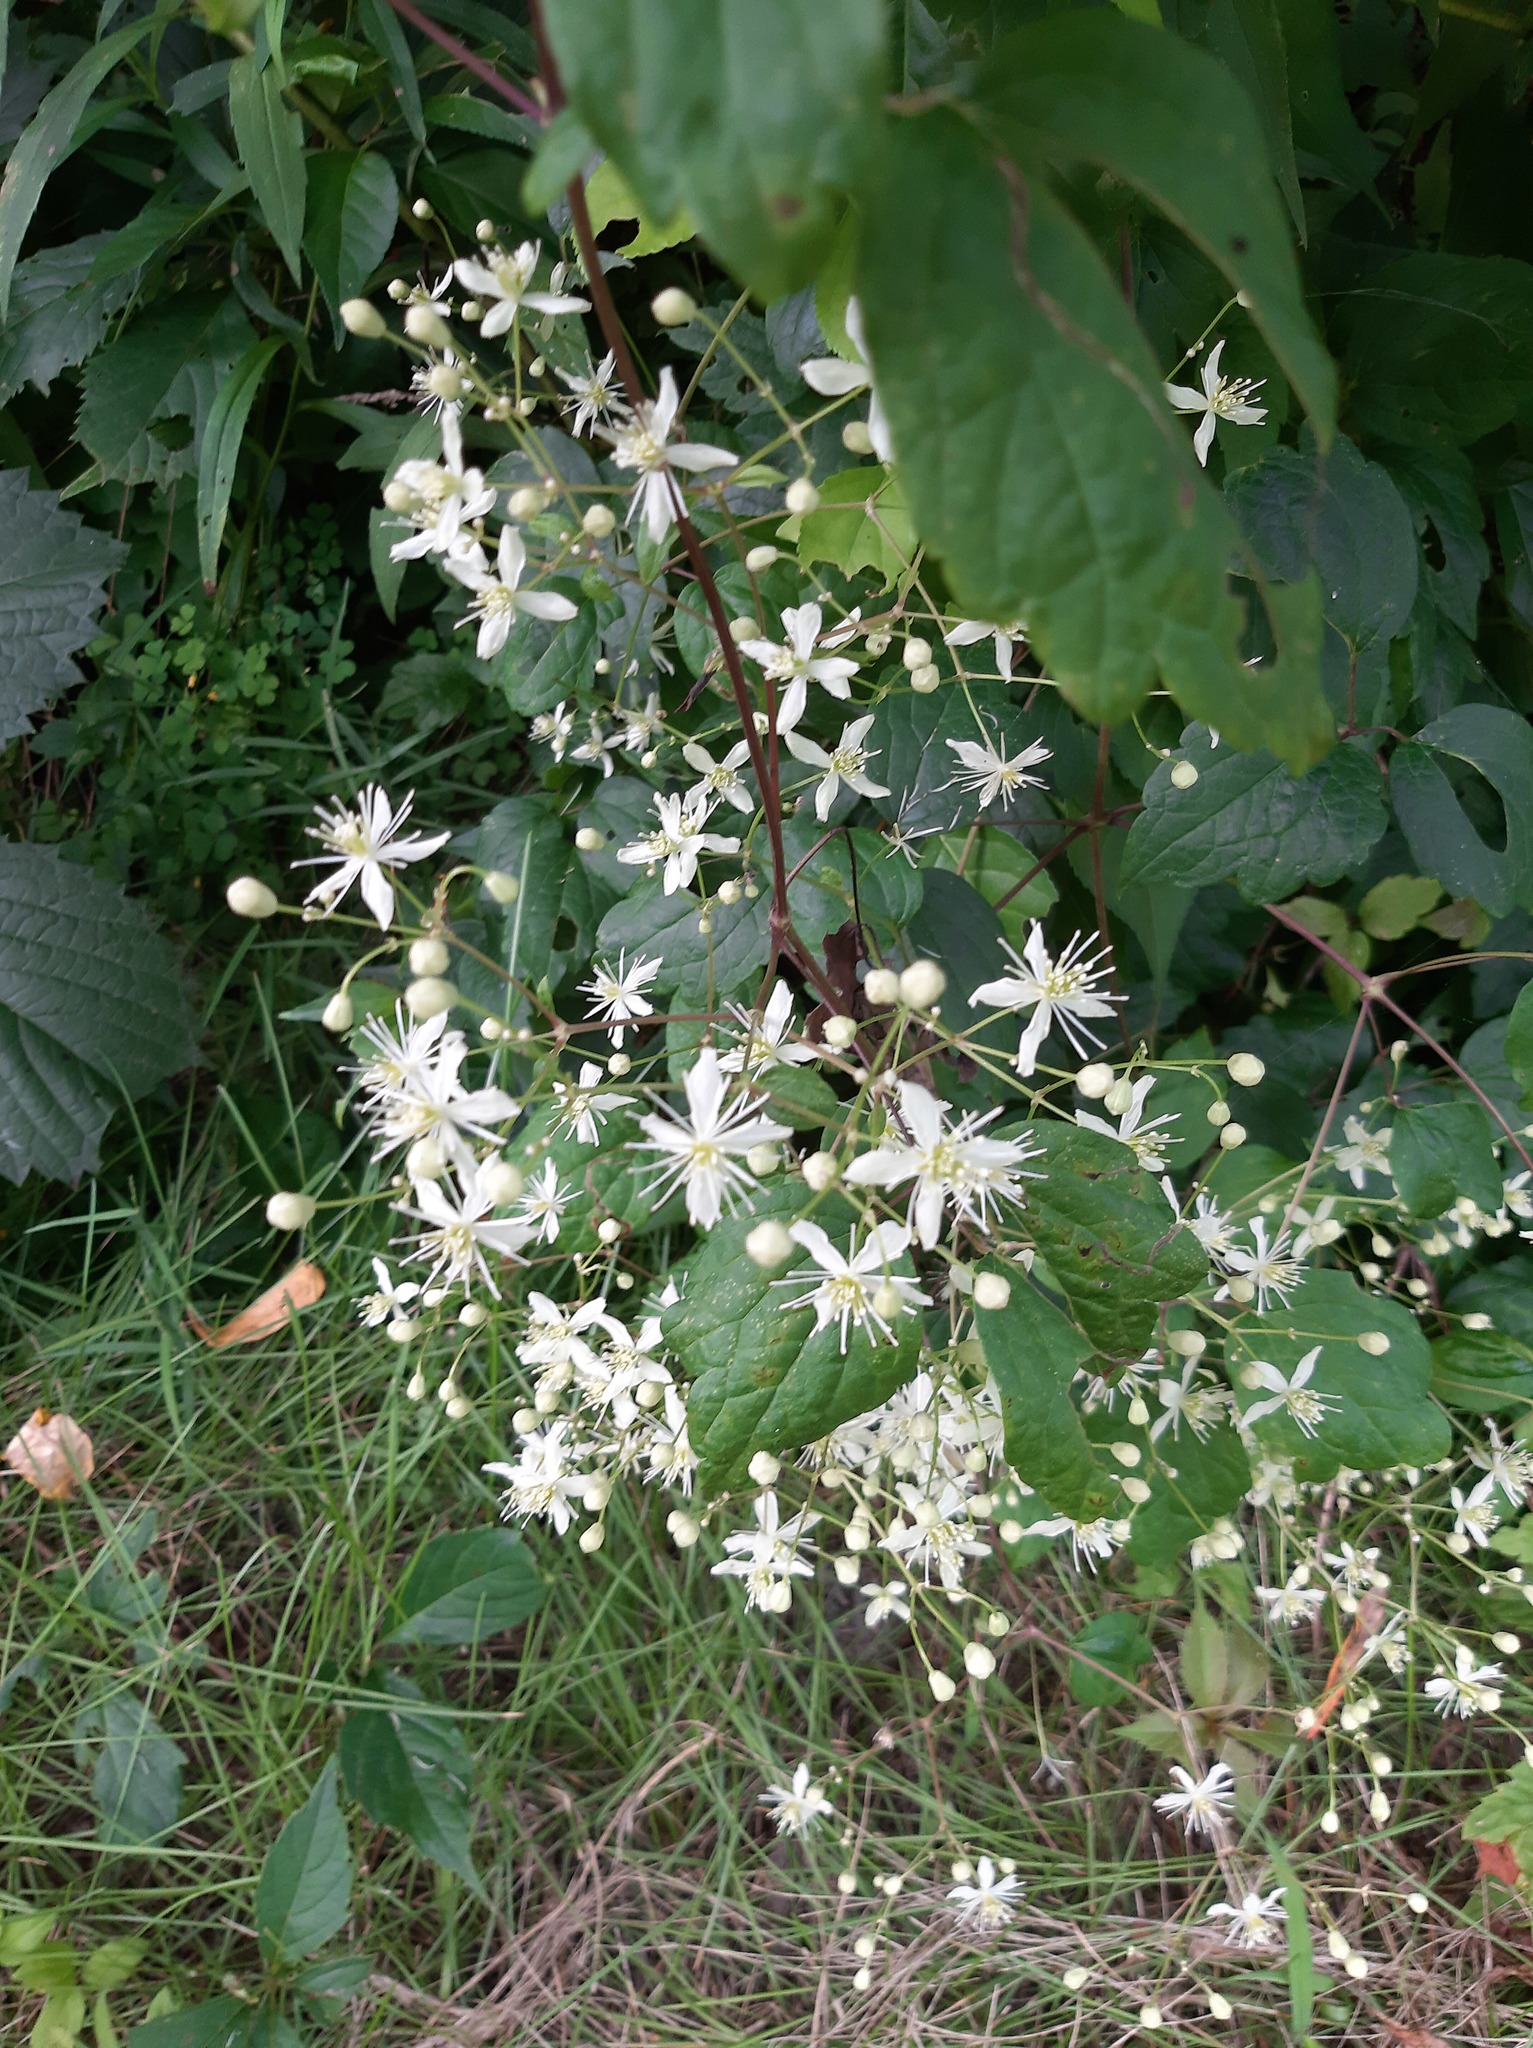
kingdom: Plantae
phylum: Tracheophyta
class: Magnoliopsida
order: Ranunculales
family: Ranunculaceae
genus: Clematis
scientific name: Clematis virginiana
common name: Virgin's-bower
